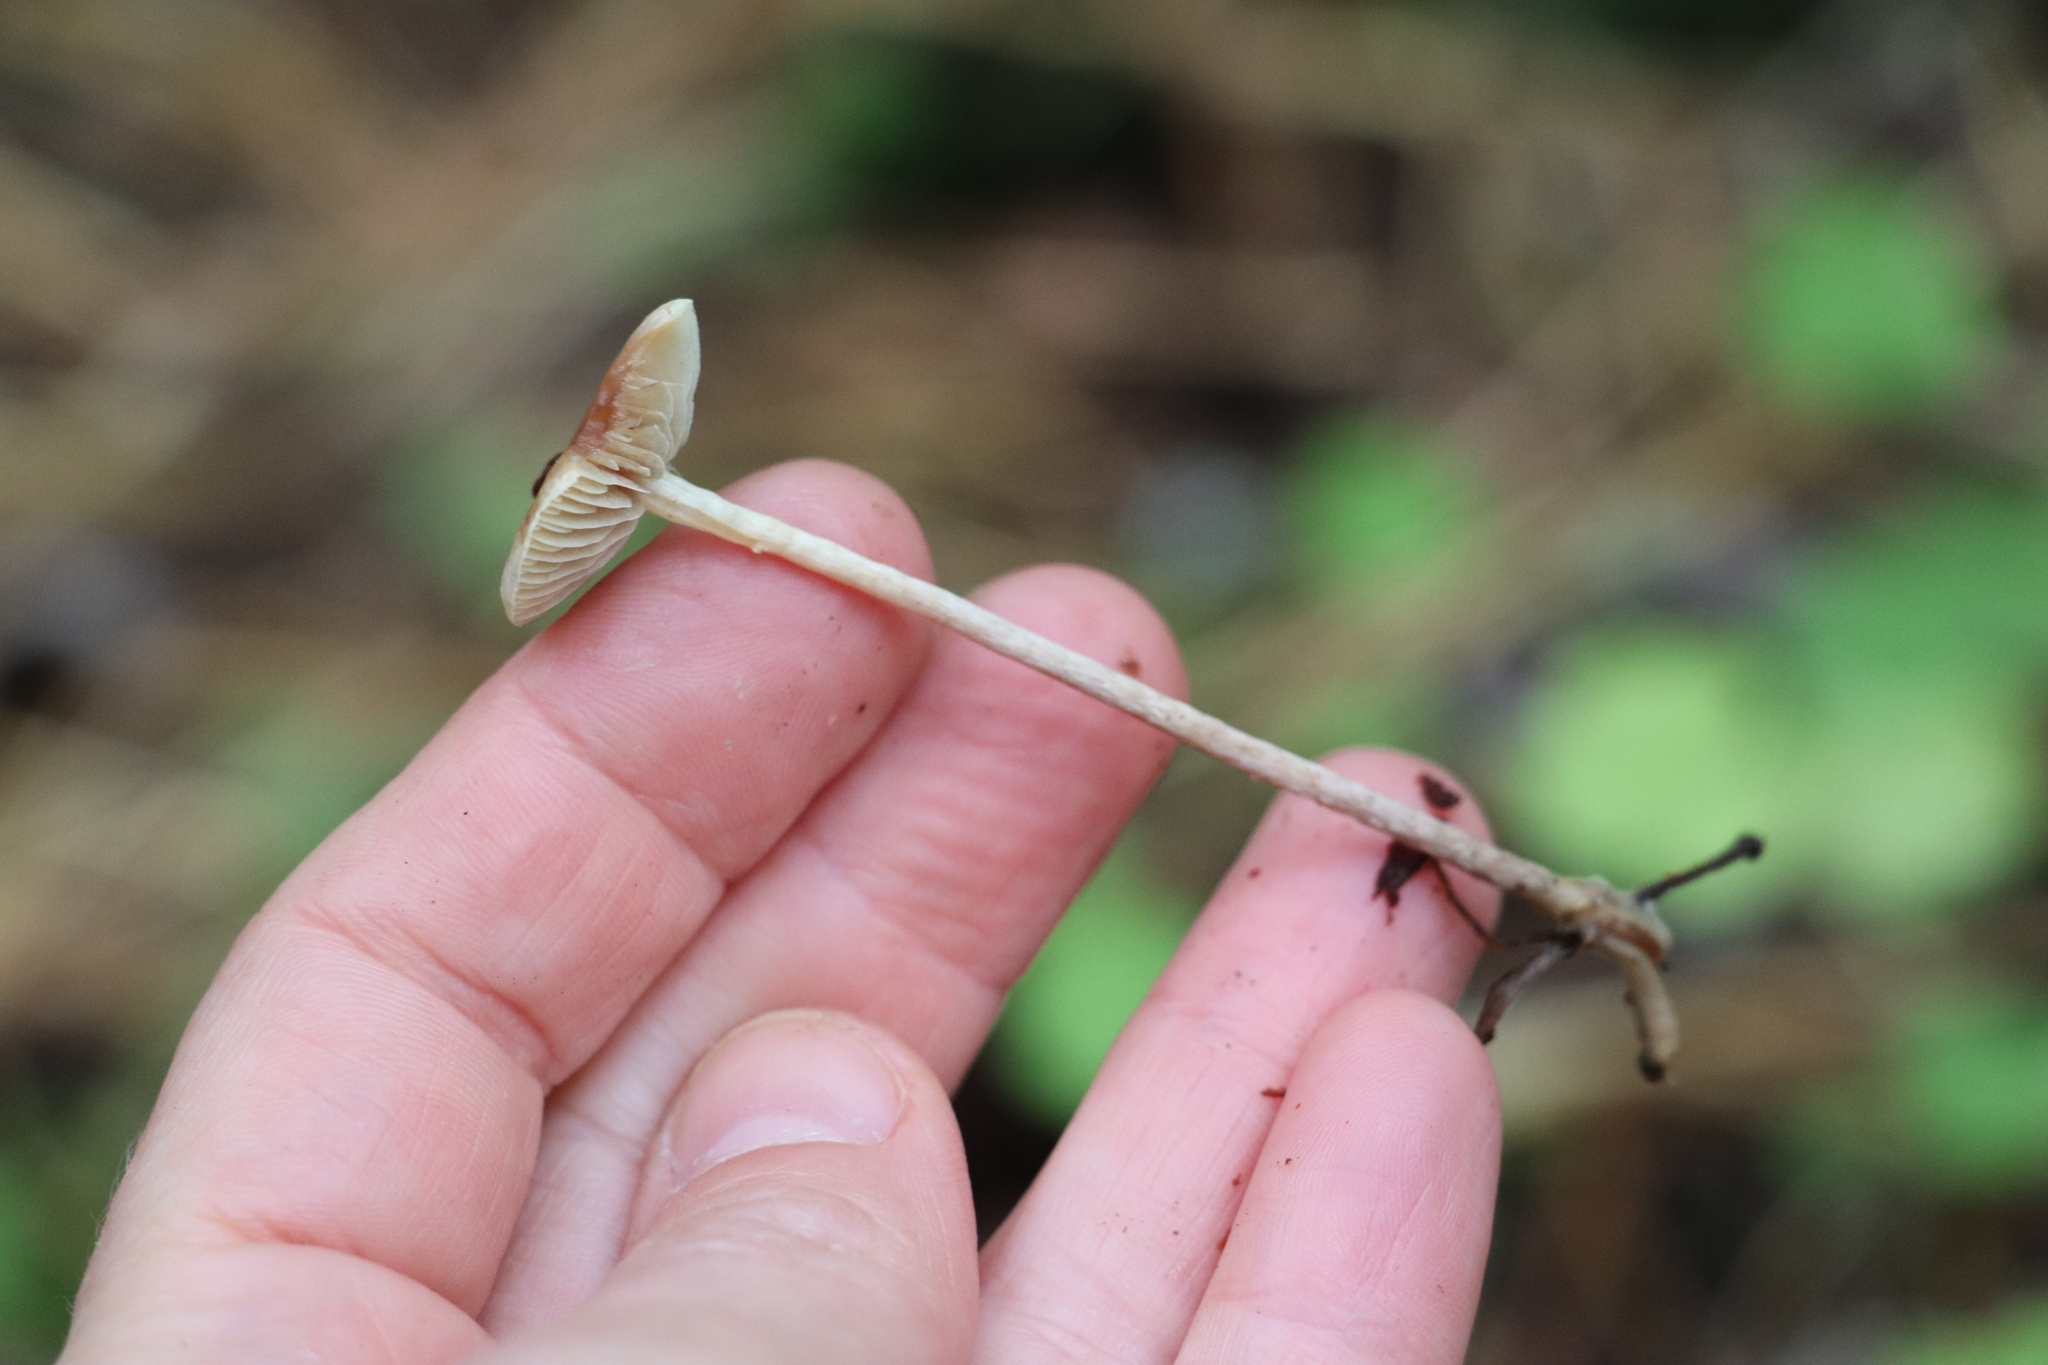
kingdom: Fungi
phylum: Basidiomycota
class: Agaricomycetes
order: Agaricales
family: Strophariaceae
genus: Hypholoma
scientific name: Hypholoma polytrichi
